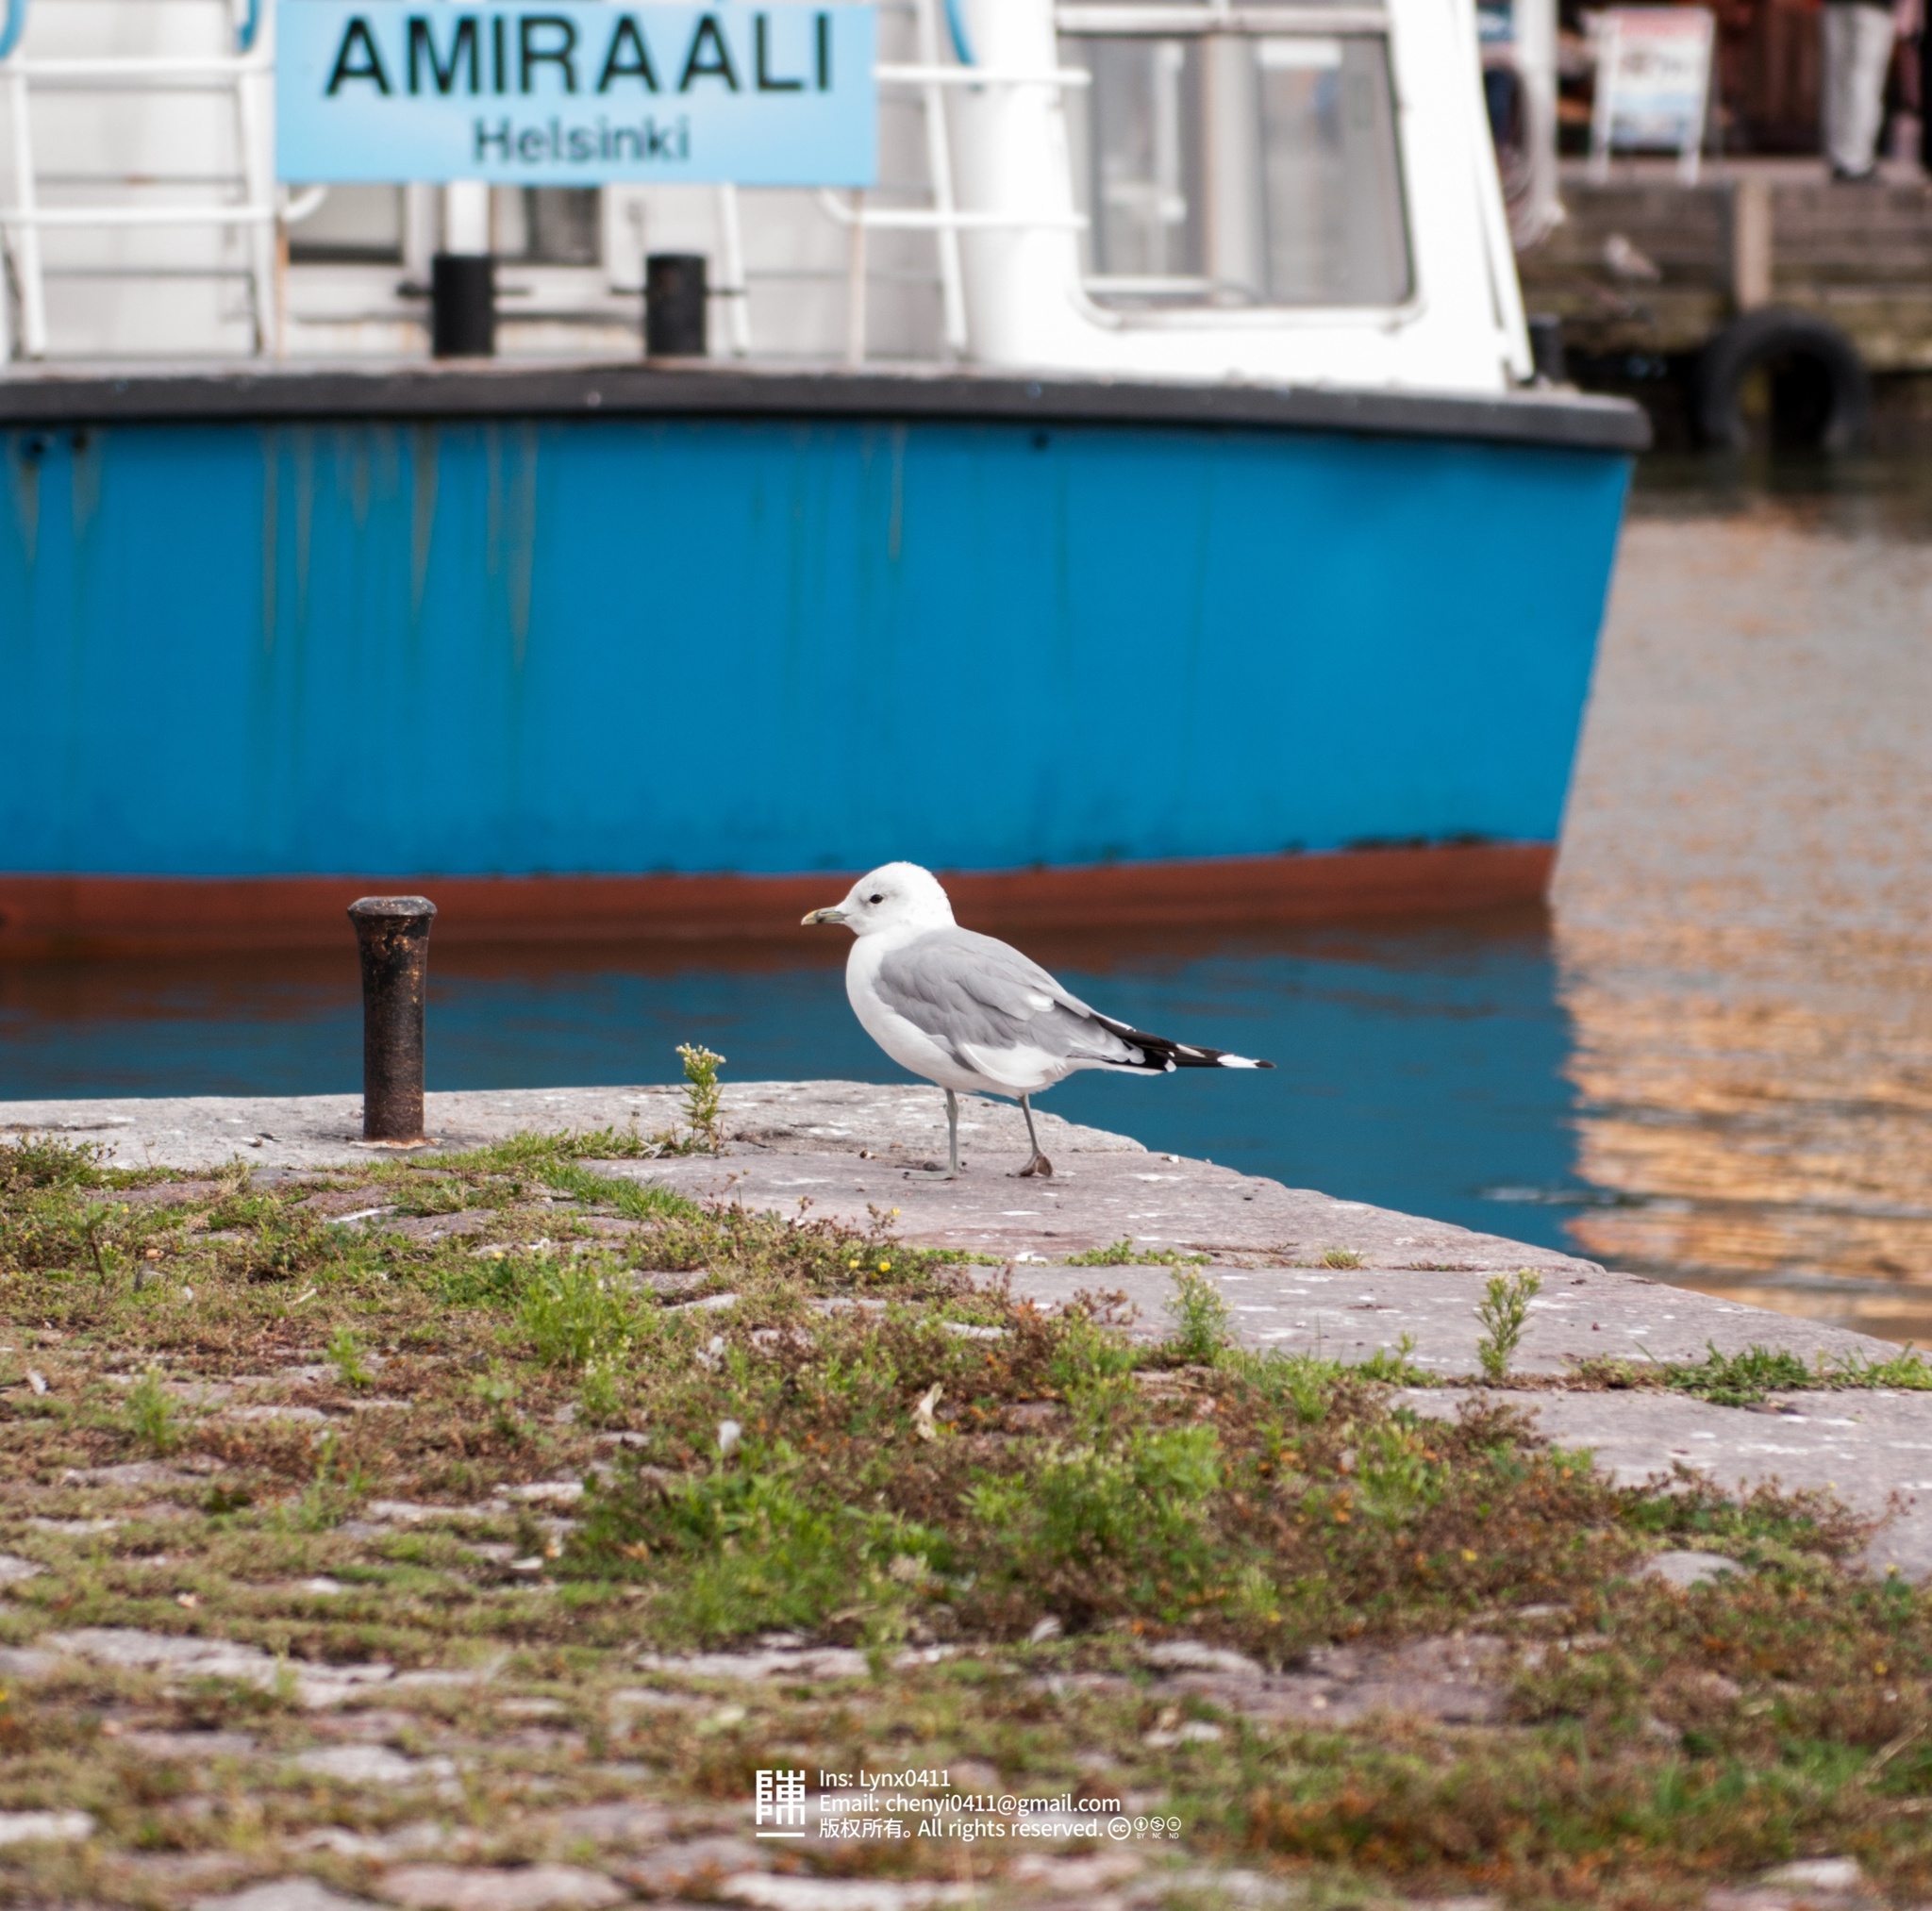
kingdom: Animalia
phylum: Chordata
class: Aves
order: Charadriiformes
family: Laridae
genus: Larus
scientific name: Larus canus
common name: Mew gull
